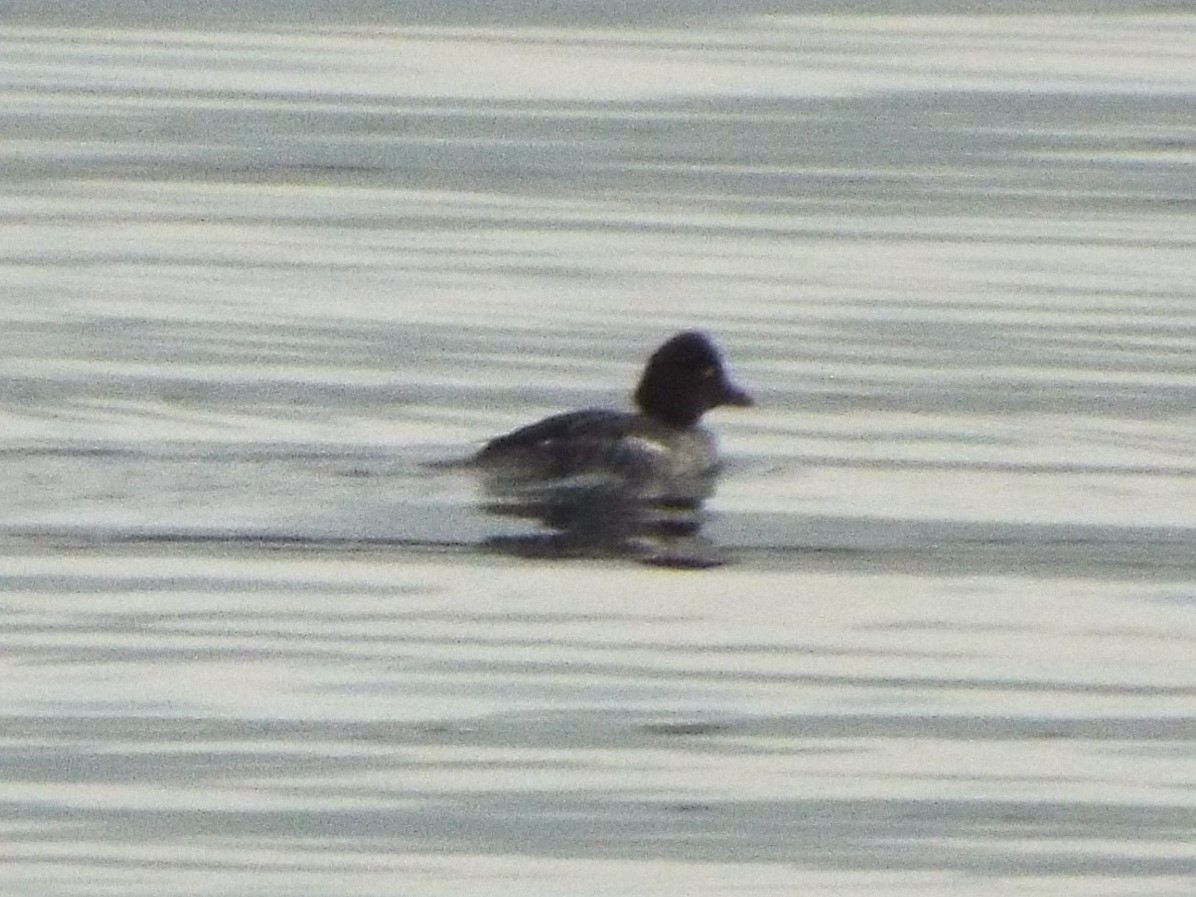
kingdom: Animalia
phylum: Chordata
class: Aves
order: Anseriformes
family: Anatidae
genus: Bucephala
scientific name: Bucephala clangula
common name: Common goldeneye
